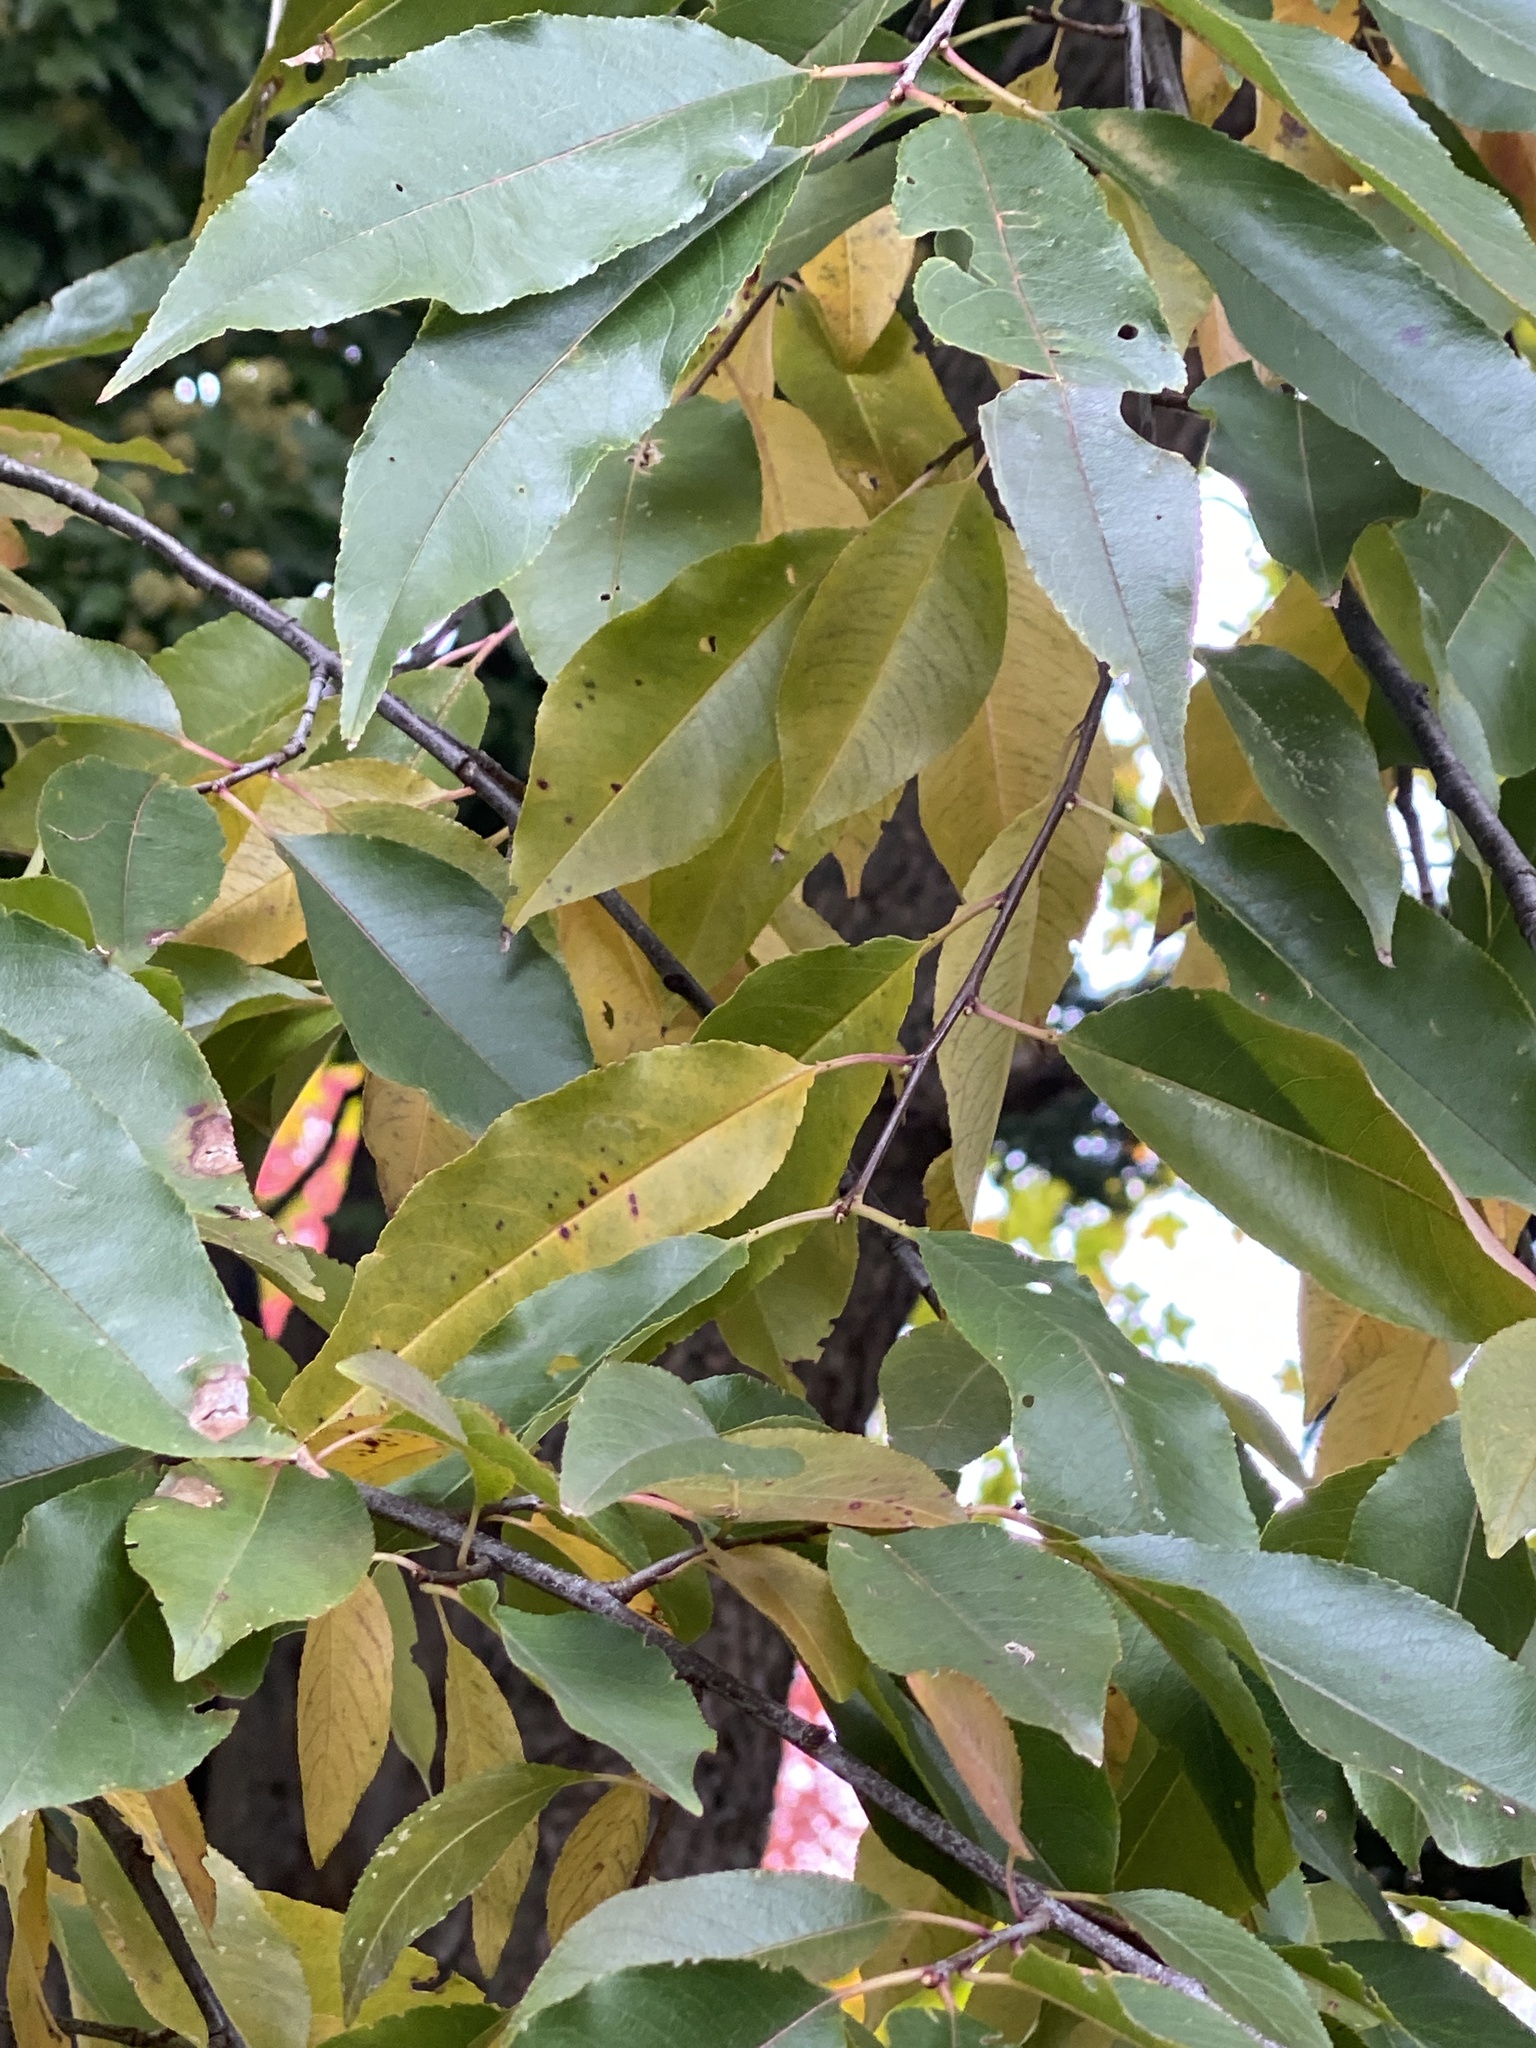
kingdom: Plantae
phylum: Tracheophyta
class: Magnoliopsida
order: Rosales
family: Rosaceae
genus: Prunus
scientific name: Prunus serotina
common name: Black cherry
